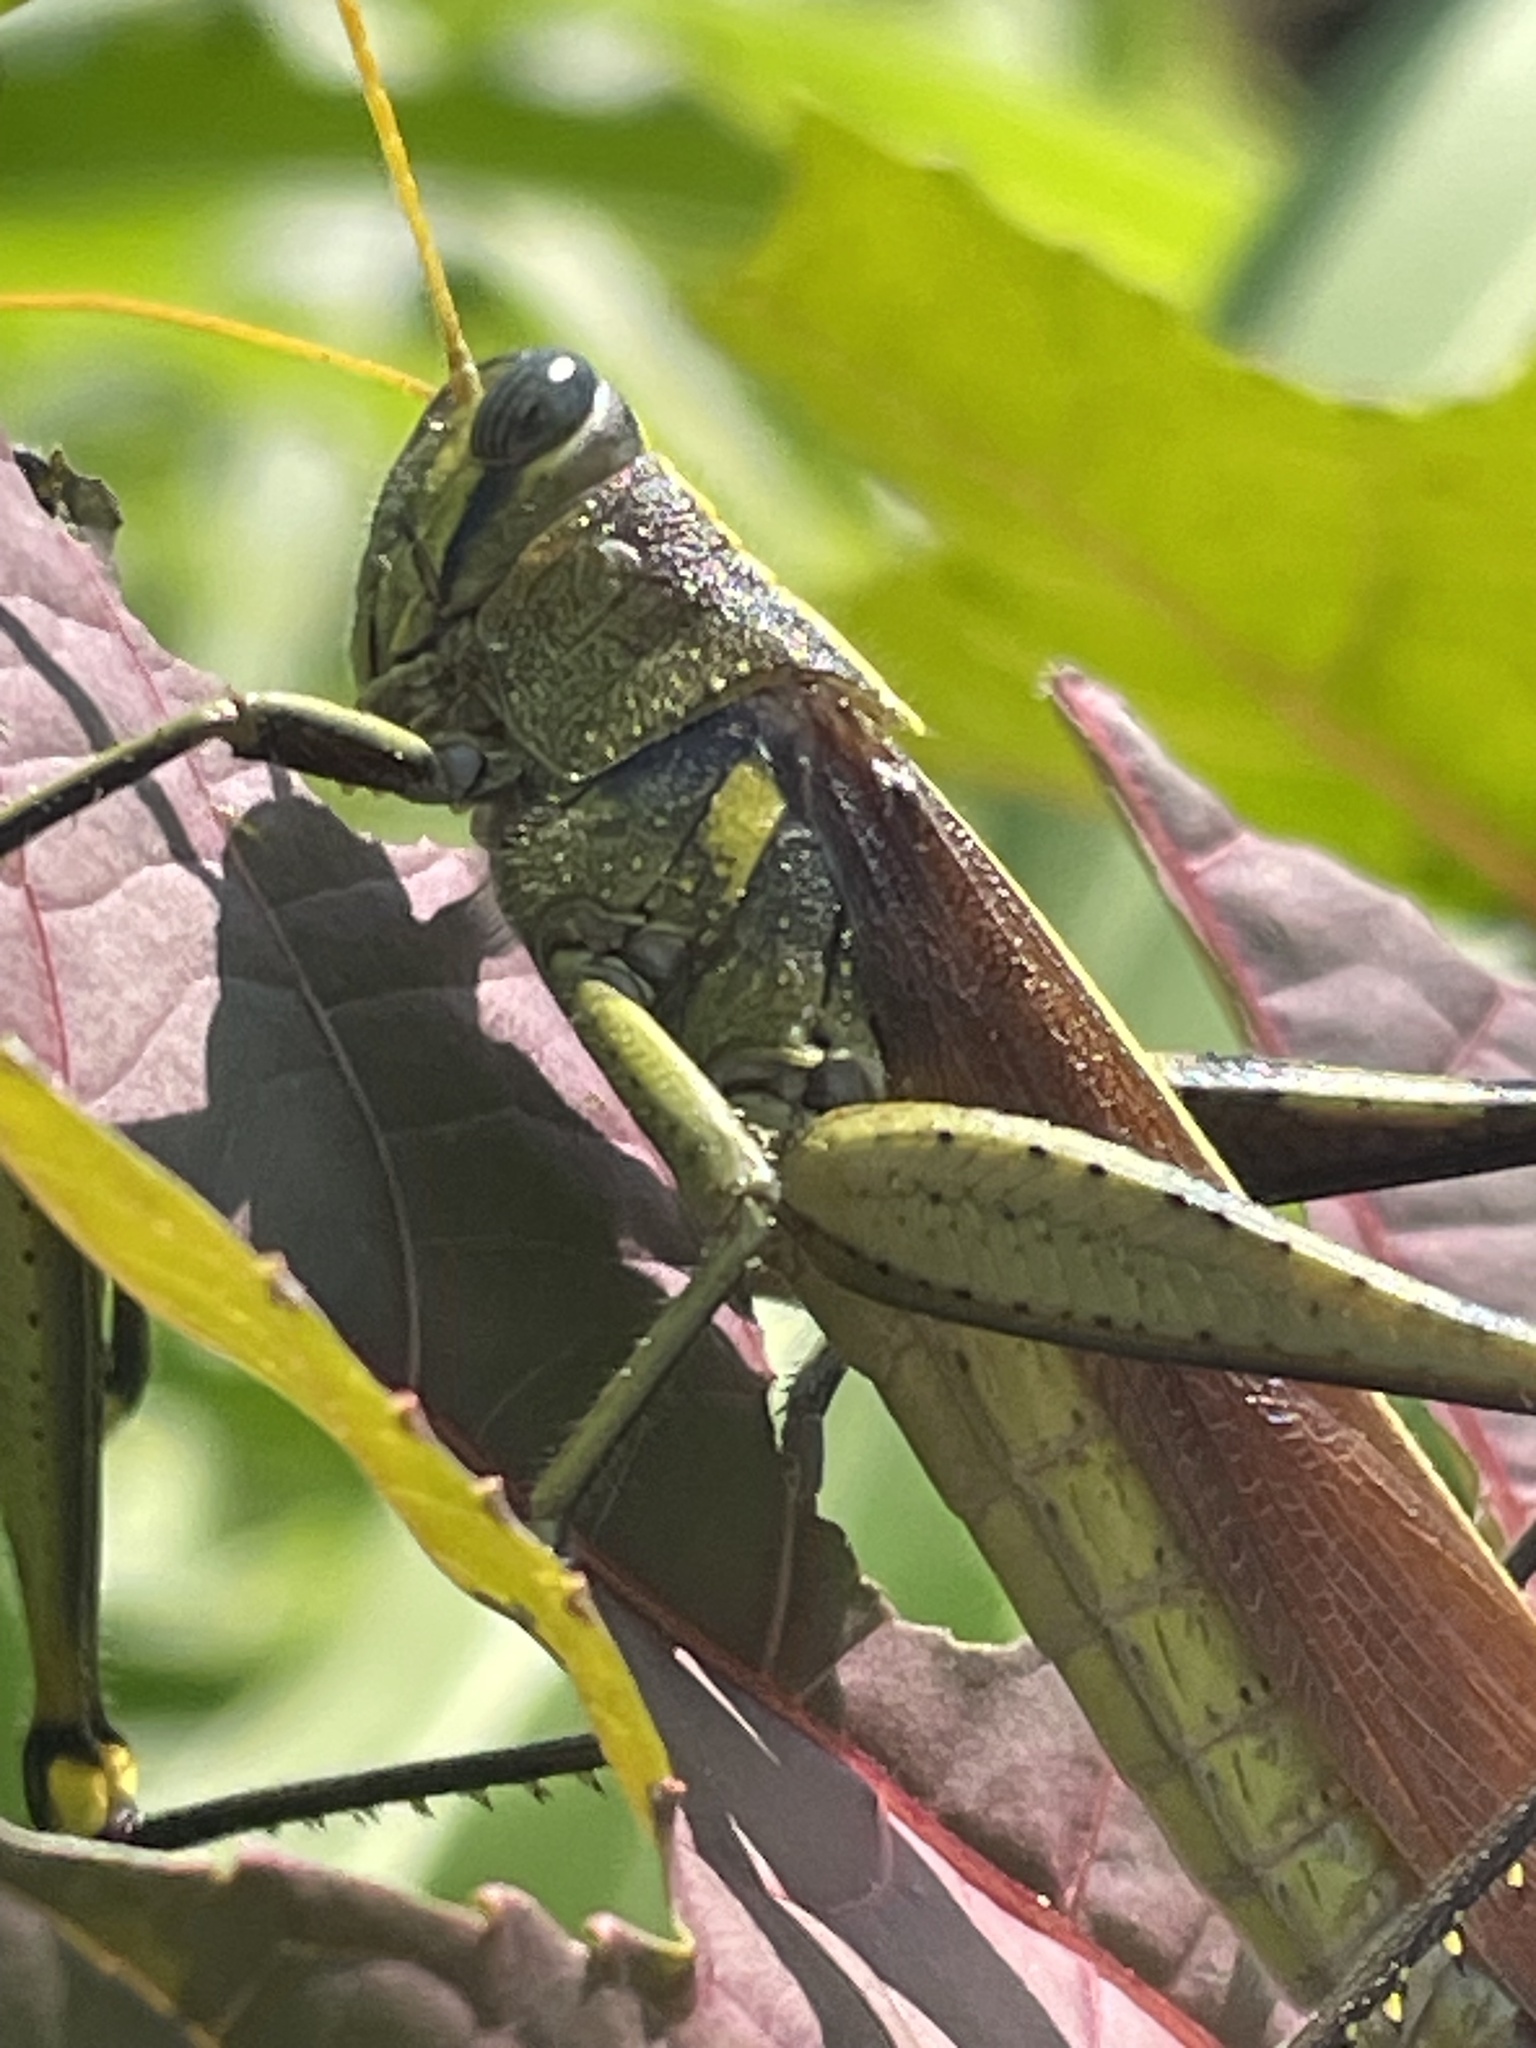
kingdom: Animalia
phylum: Arthropoda
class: Insecta
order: Orthoptera
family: Acrididae
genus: Schistocerca
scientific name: Schistocerca obscura
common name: Obscure bird grasshopper
